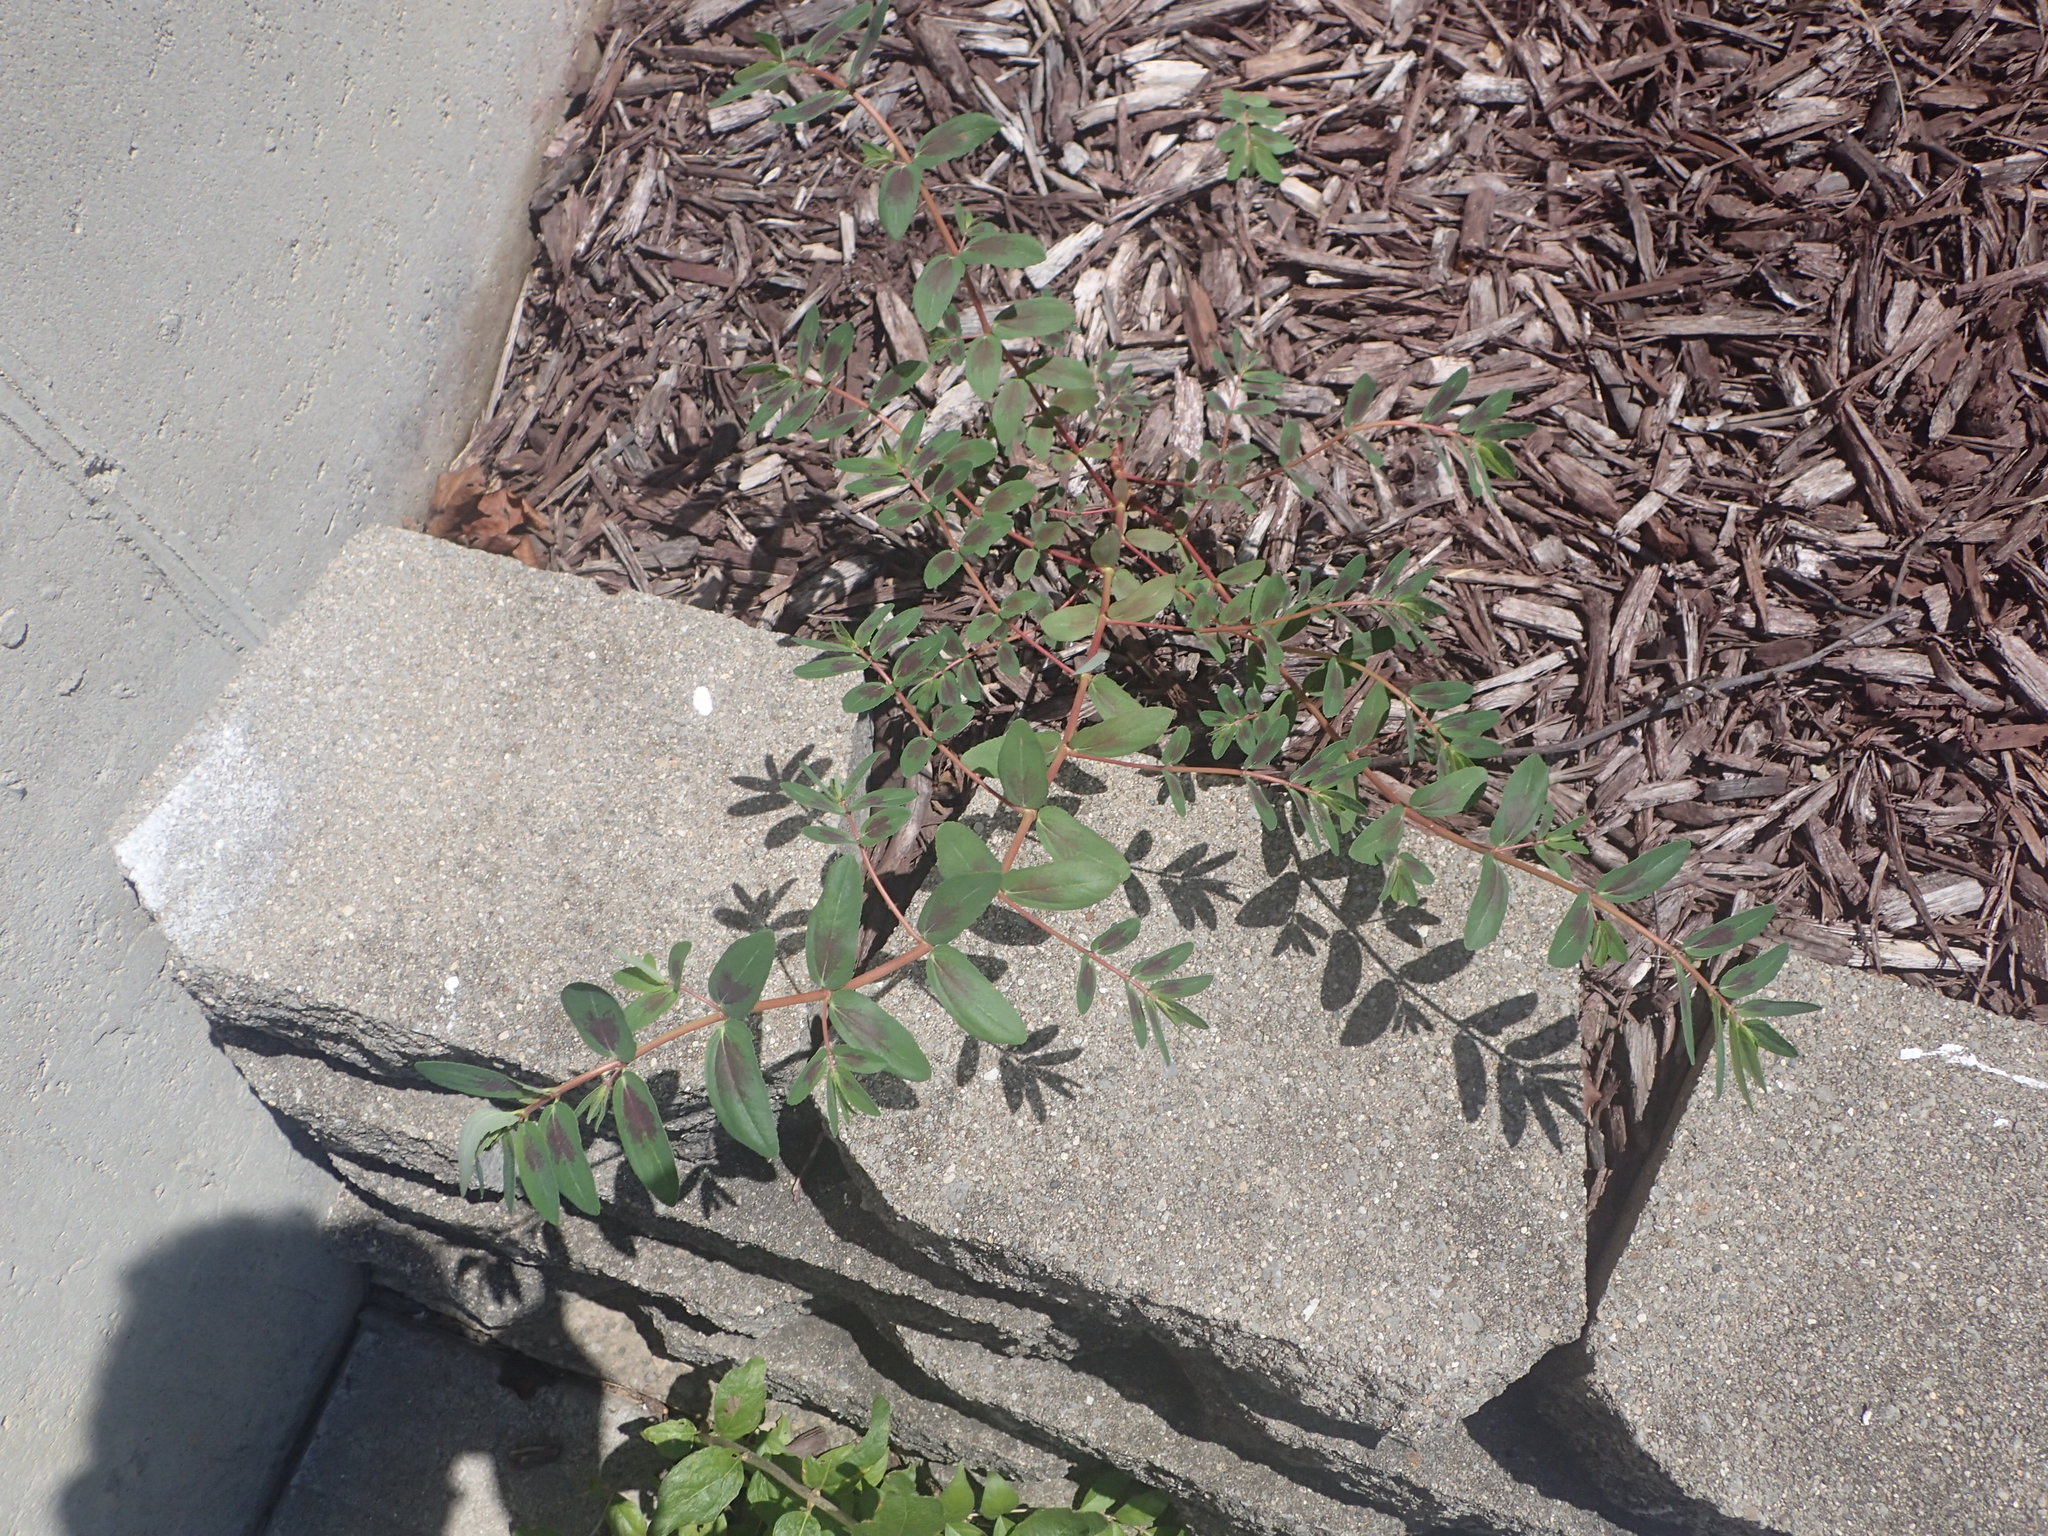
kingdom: Plantae
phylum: Tracheophyta
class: Magnoliopsida
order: Malpighiales
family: Euphorbiaceae
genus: Euphorbia
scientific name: Euphorbia nutans
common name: Eyebane
